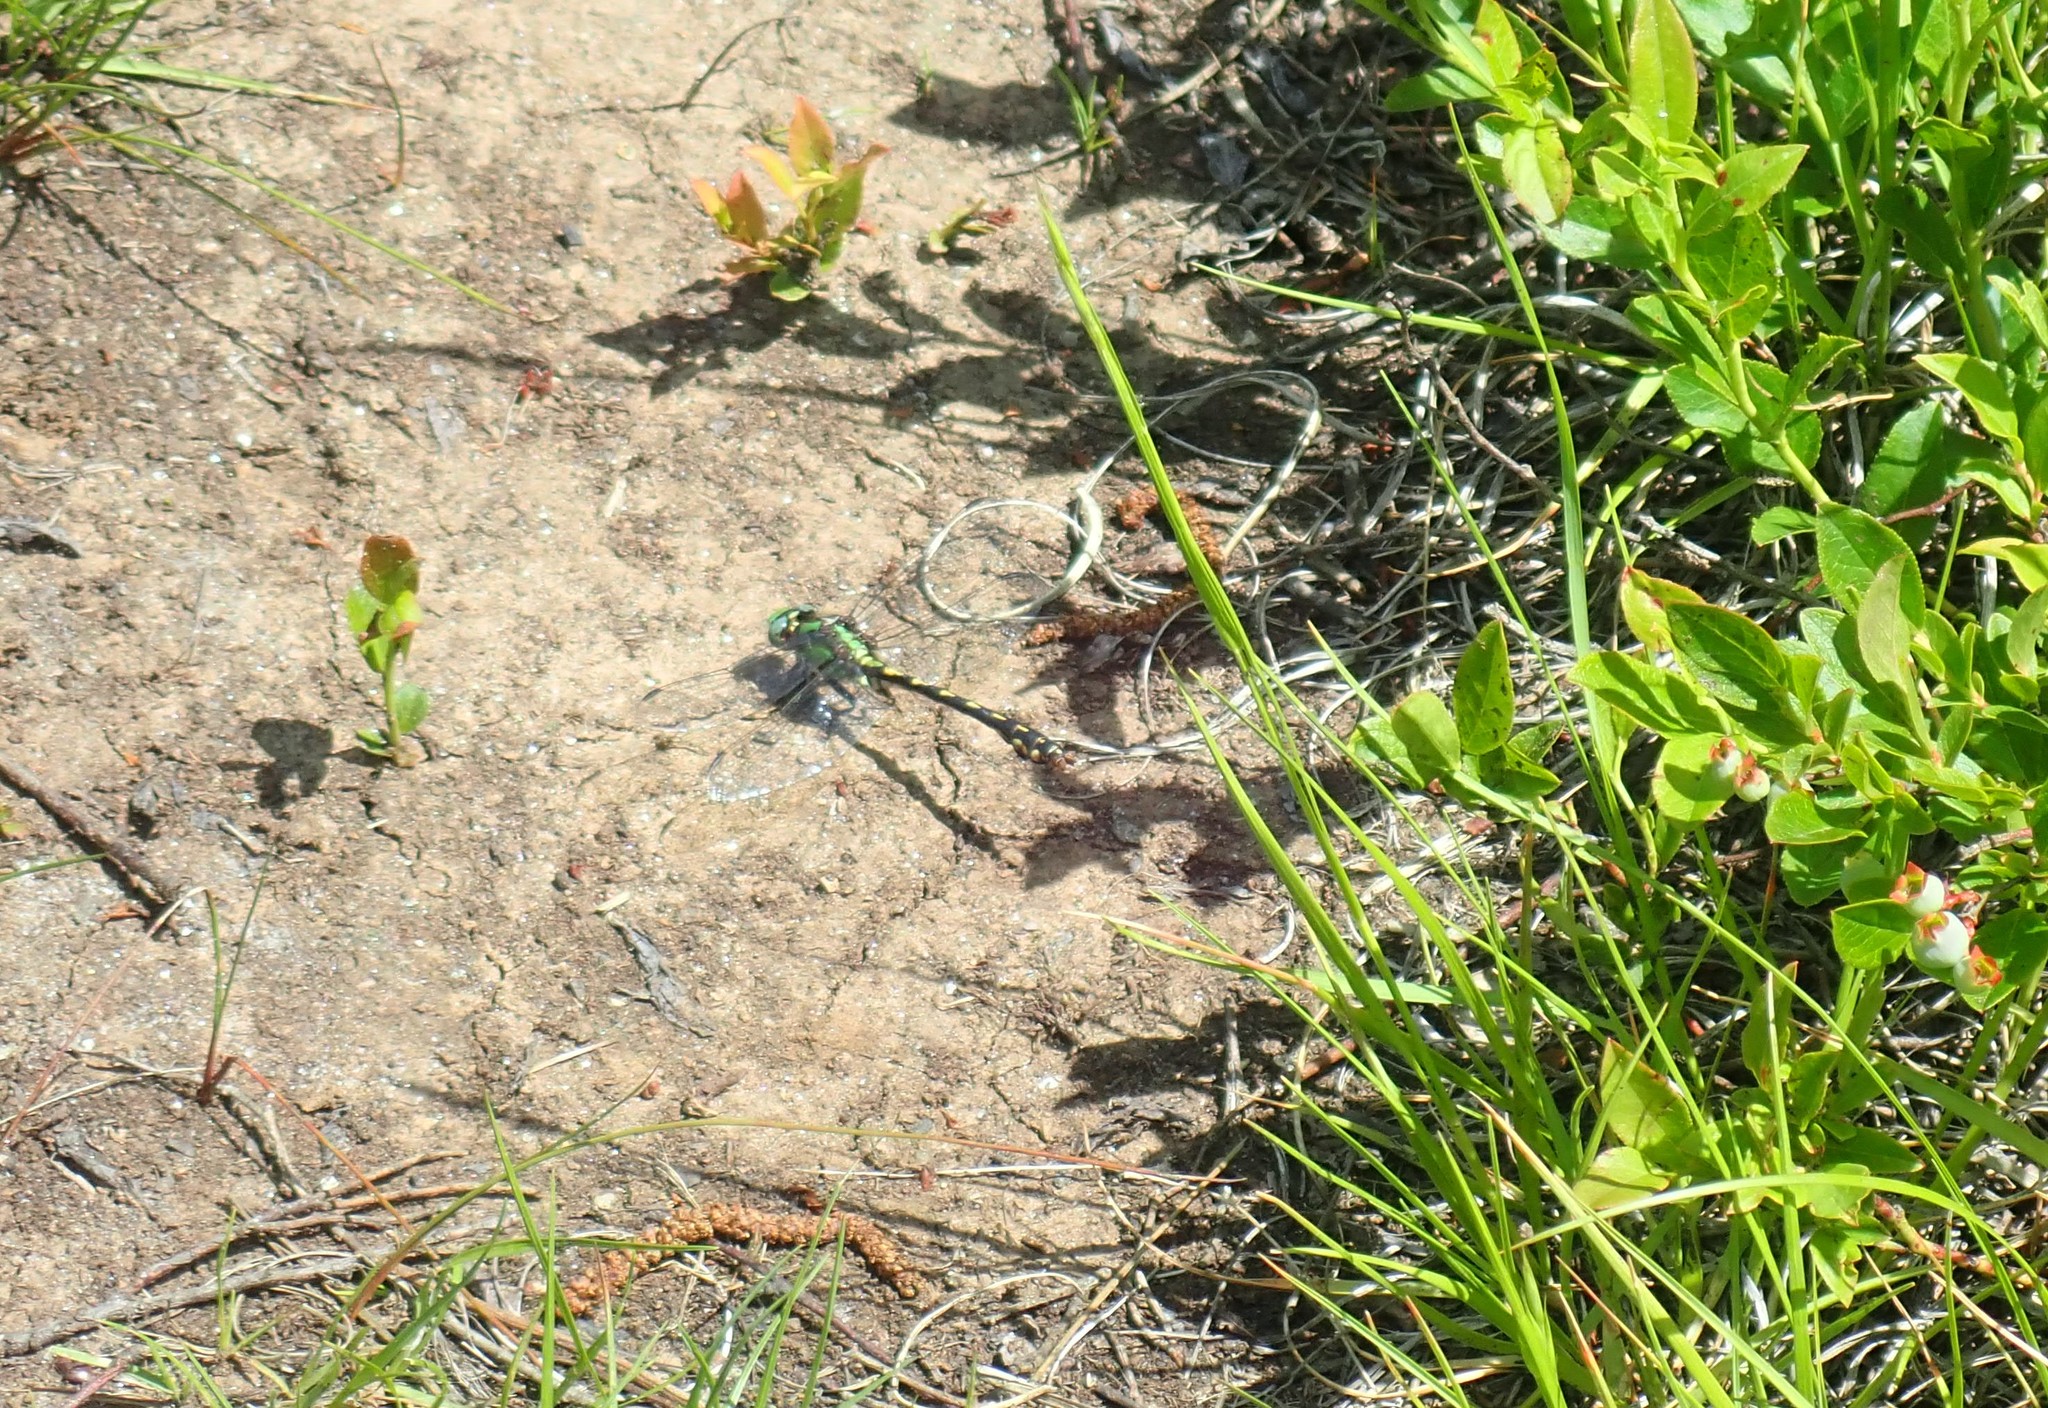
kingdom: Animalia
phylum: Arthropoda
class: Insecta
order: Odonata
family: Gomphidae
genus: Ophiogomphus
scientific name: Ophiogomphus carolus
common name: Riffle snaketail
